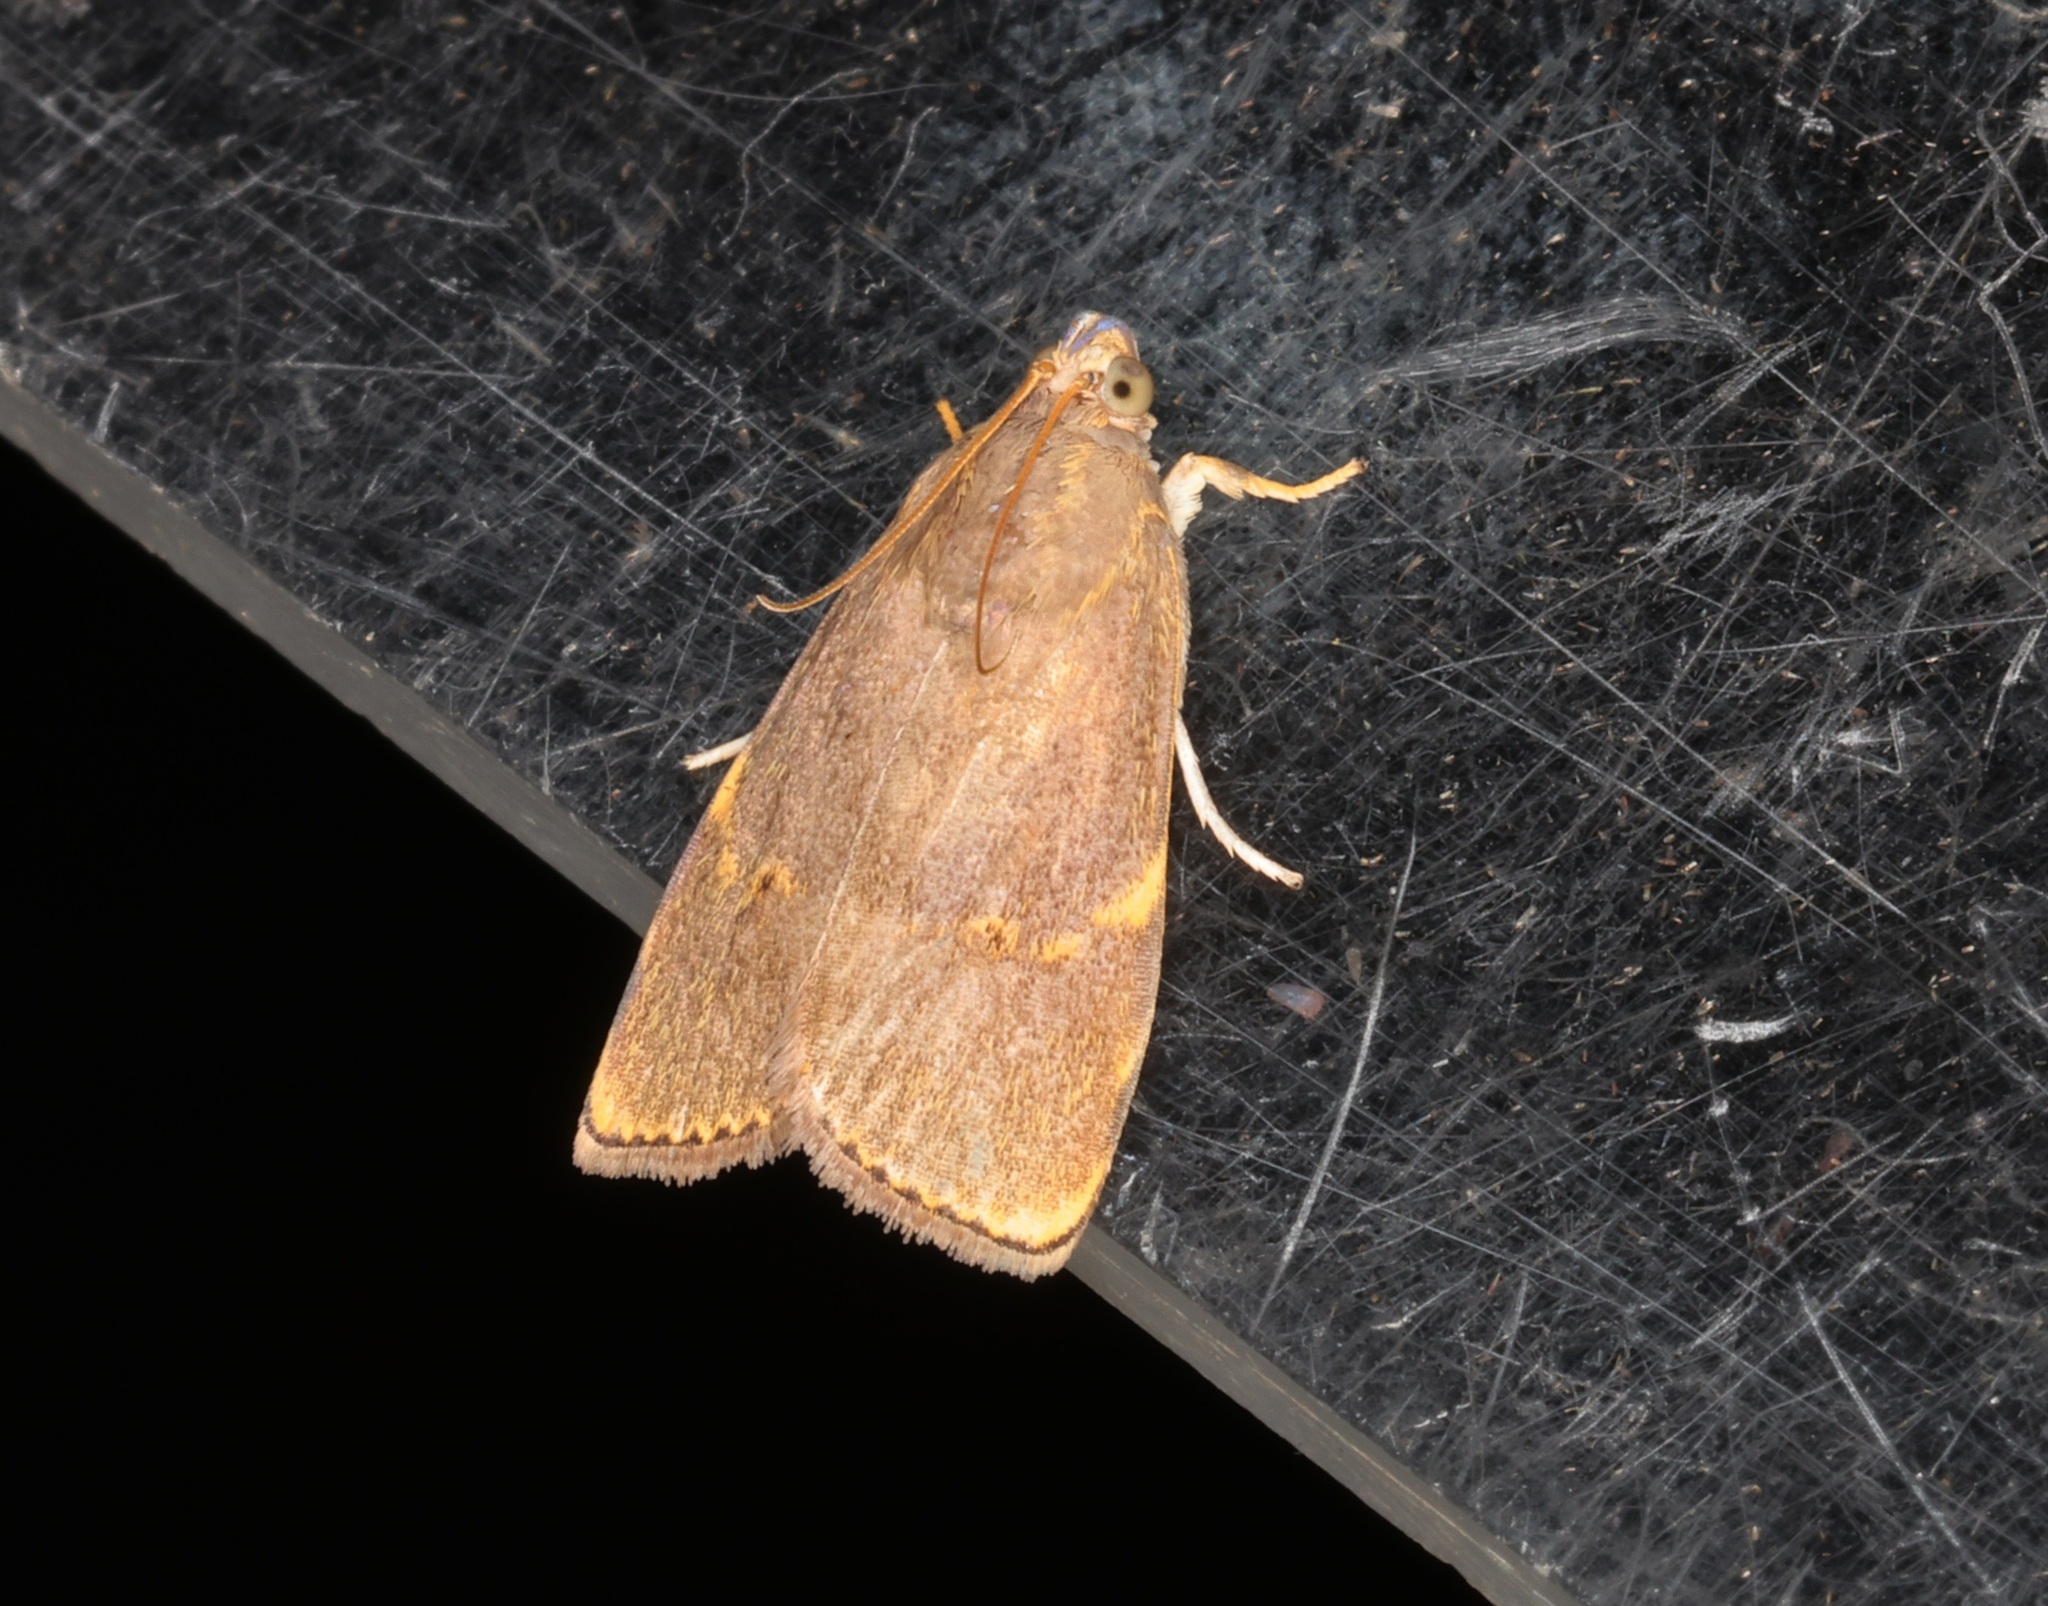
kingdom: Animalia
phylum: Arthropoda
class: Insecta
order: Lepidoptera
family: Immidae
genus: Imma
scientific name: Imma mylias
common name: Moth
